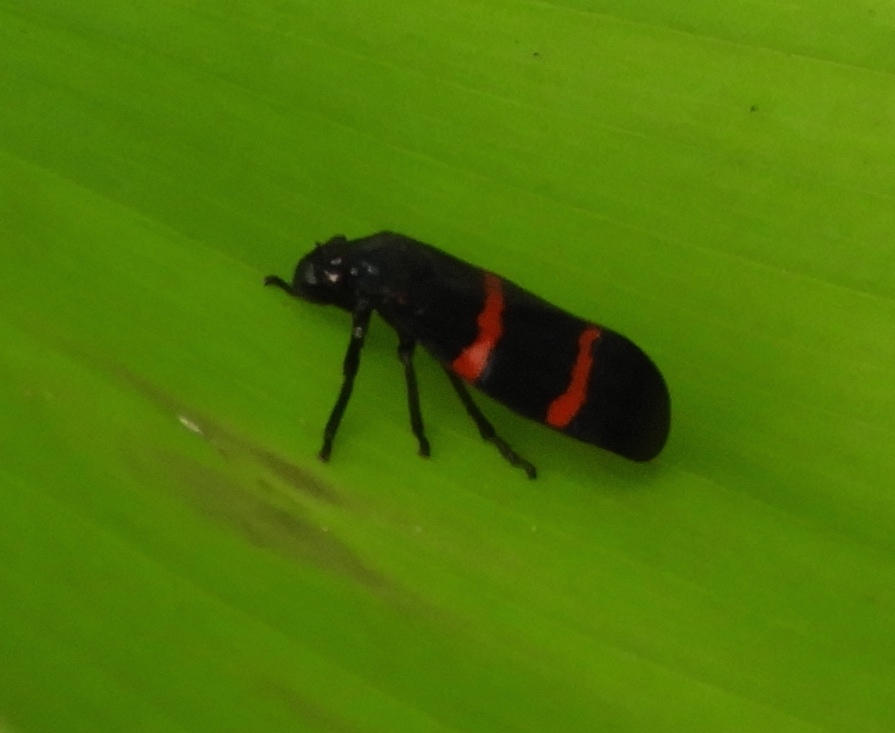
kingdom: Animalia
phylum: Arthropoda
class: Insecta
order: Hemiptera
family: Cercopidae
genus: Huaina
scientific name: Huaina inca
